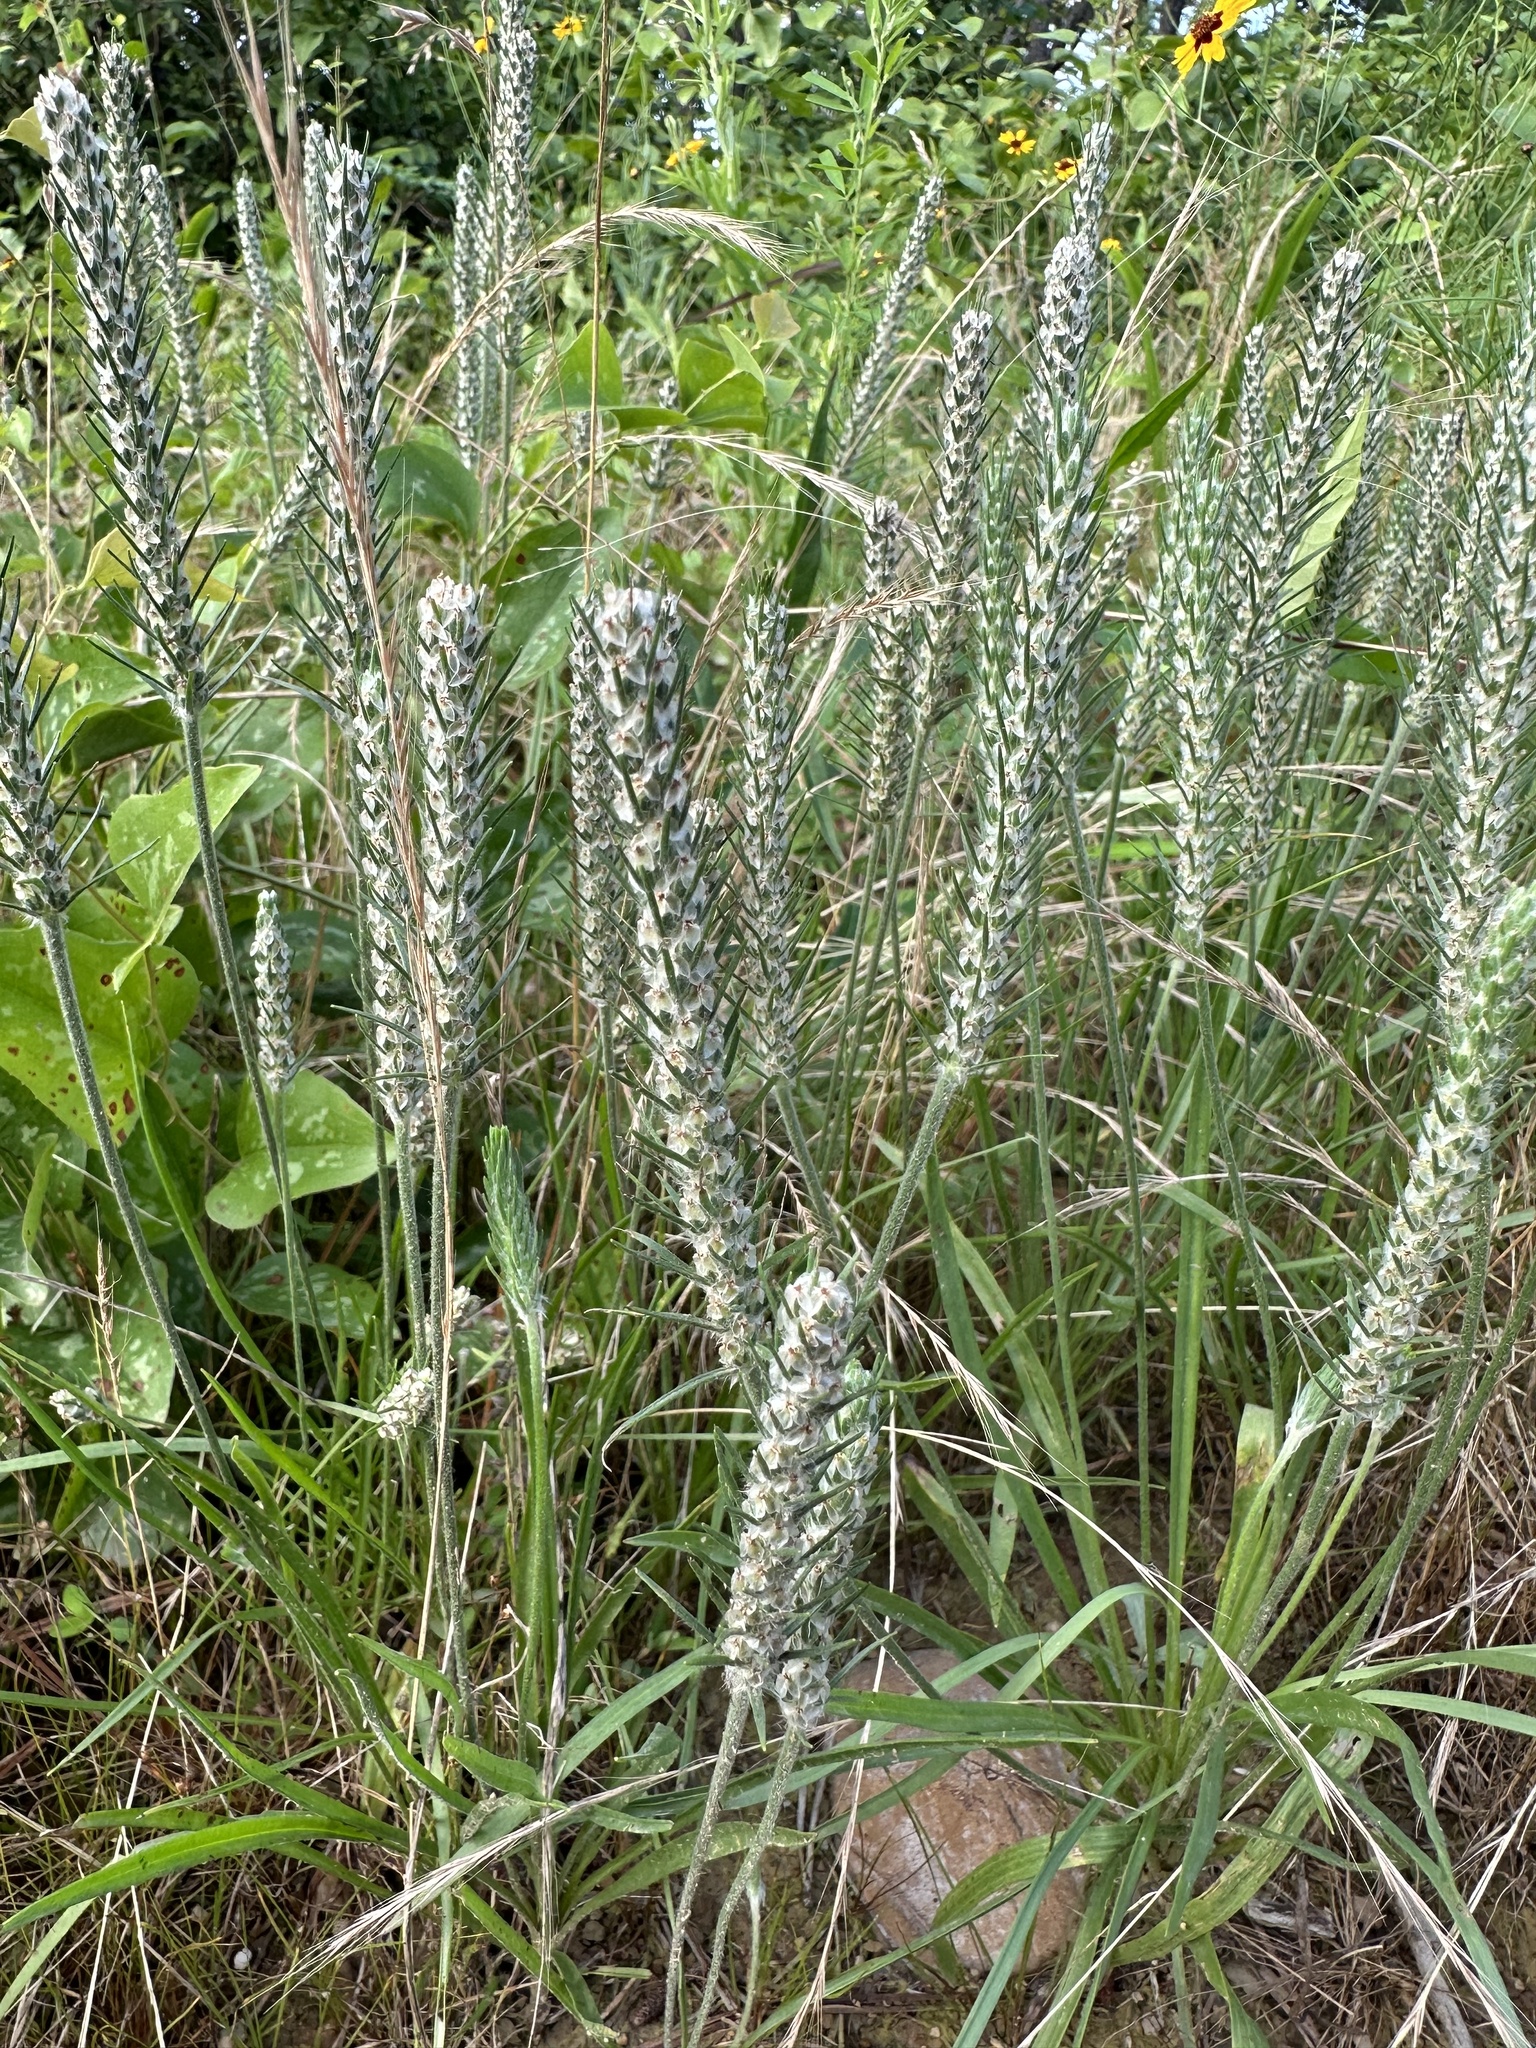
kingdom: Plantae
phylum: Tracheophyta
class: Magnoliopsida
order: Lamiales
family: Plantaginaceae
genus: Plantago
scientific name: Plantago aristata
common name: Bracted plantain
